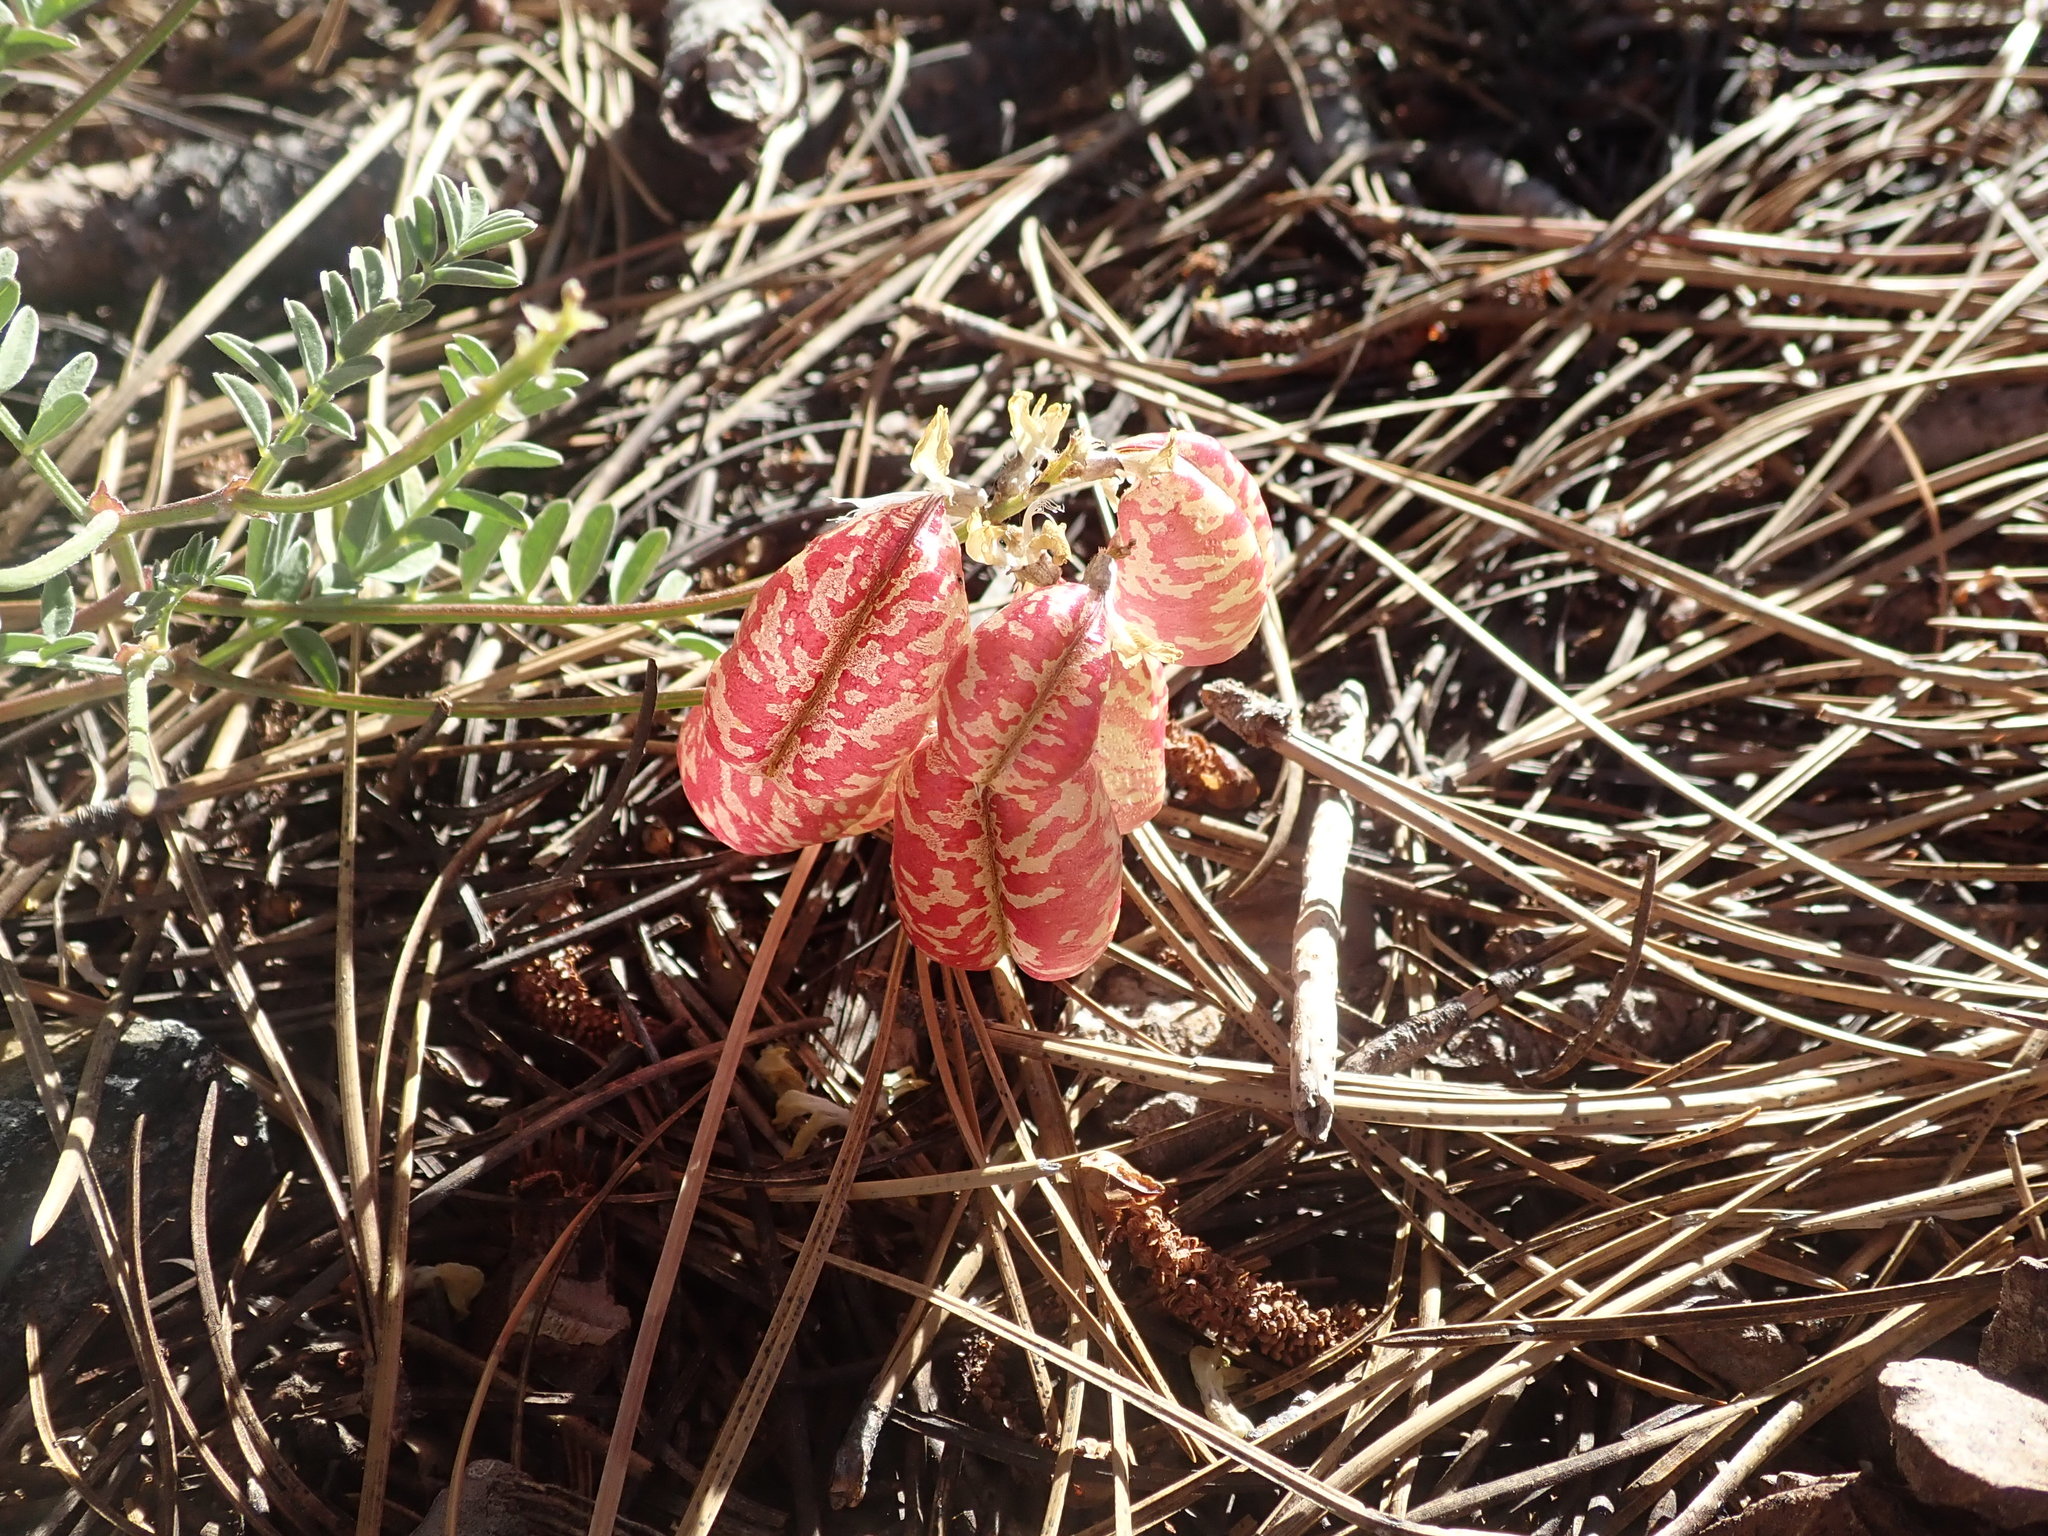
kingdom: Plantae
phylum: Tracheophyta
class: Magnoliopsida
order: Fabales
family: Fabaceae
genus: Astragalus
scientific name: Astragalus whitneyi
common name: Balloonpod milkvetch
